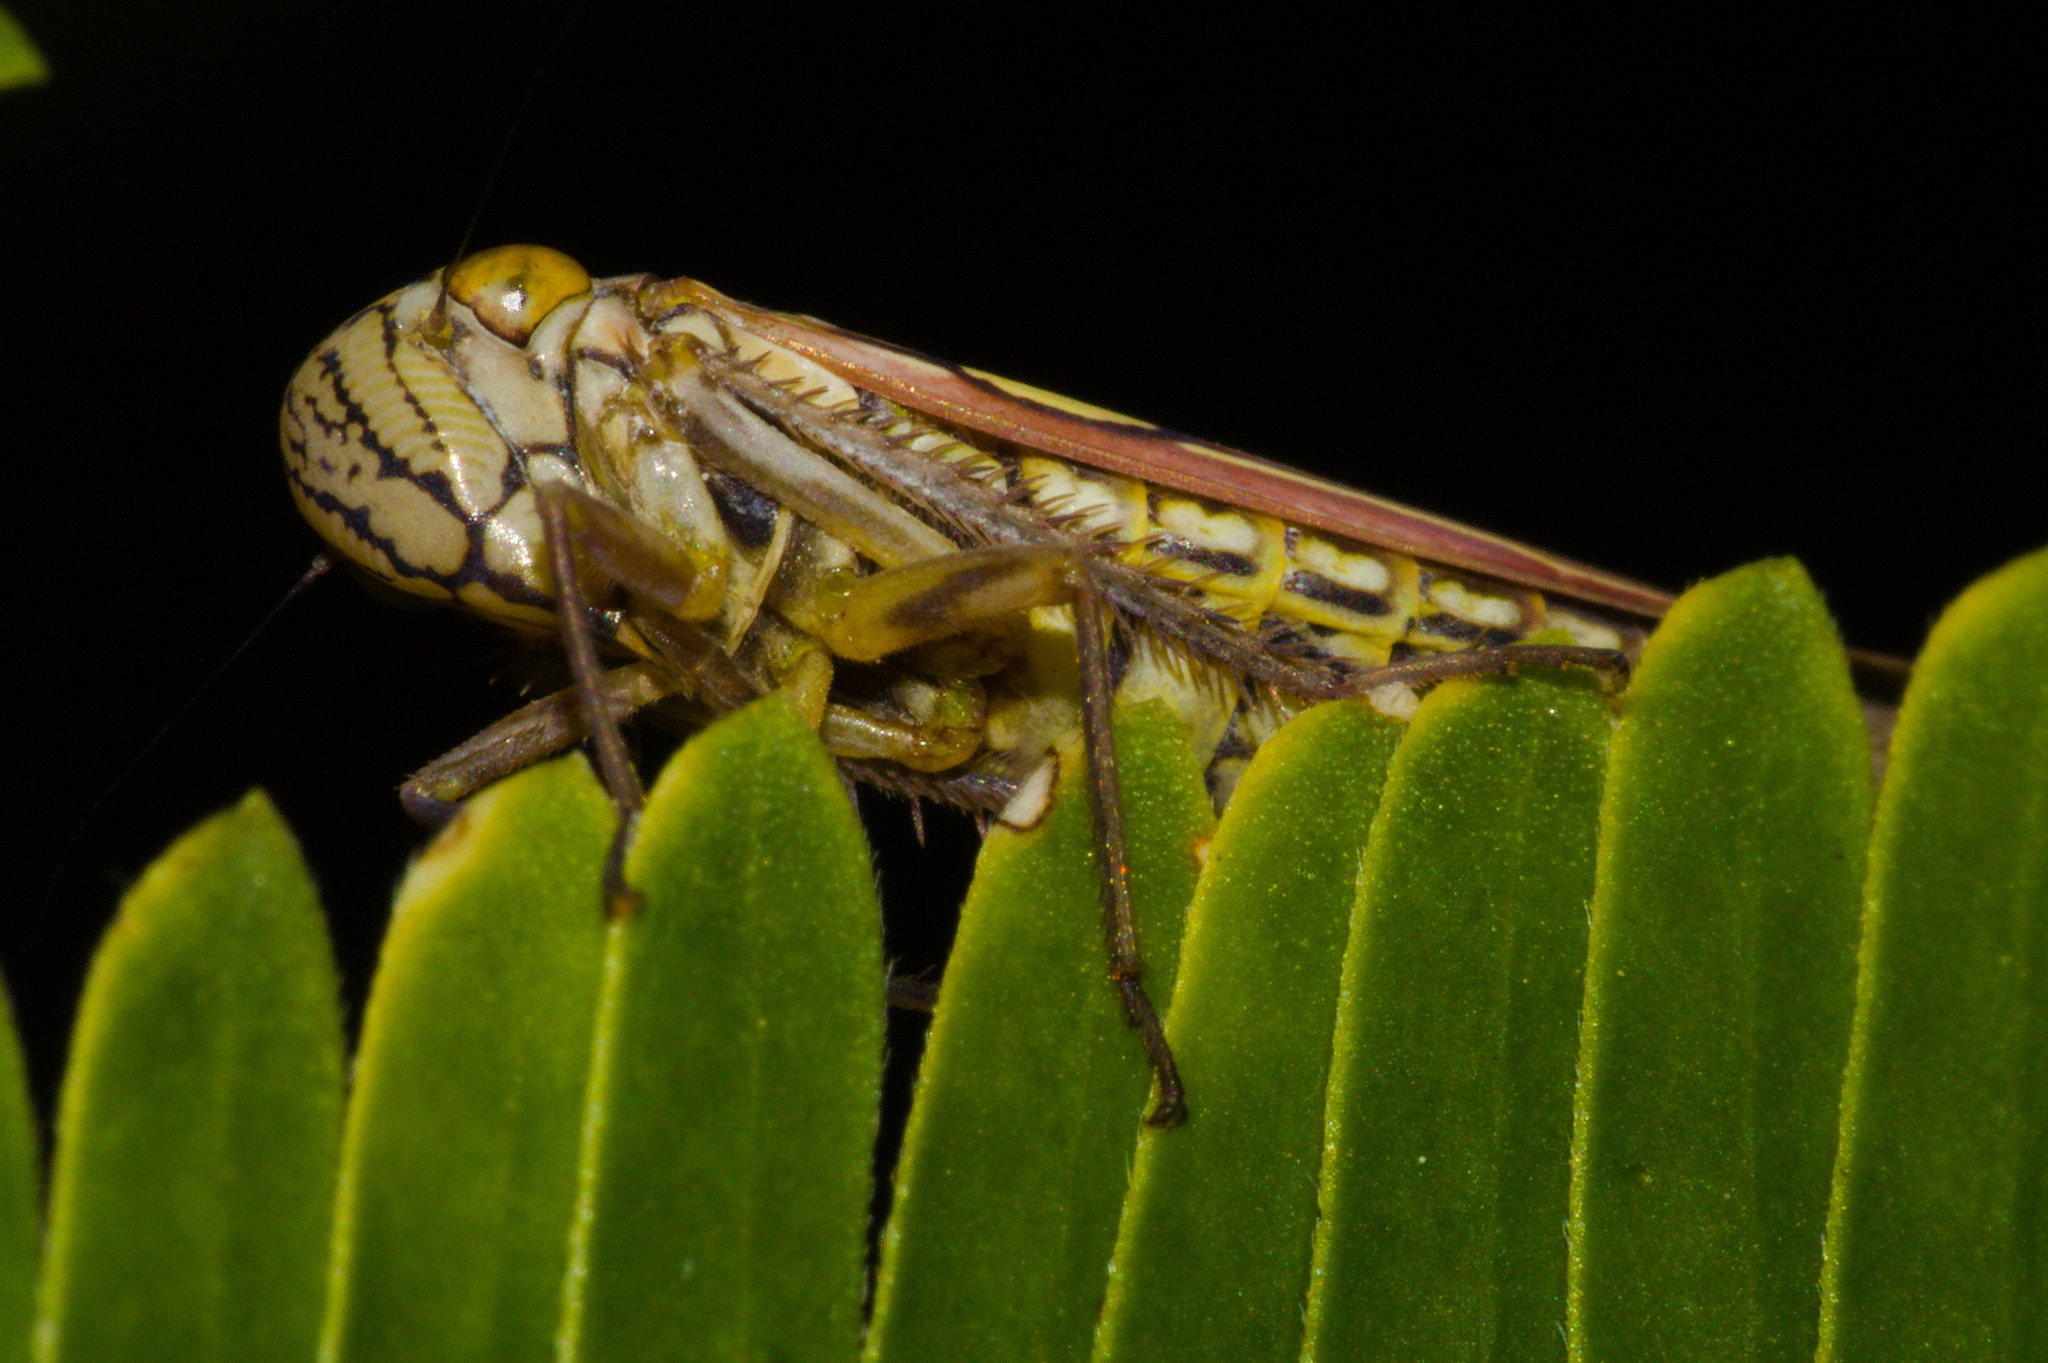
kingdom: Animalia
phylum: Arthropoda
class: Insecta
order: Hemiptera
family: Cicadellidae
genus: Macugonalia
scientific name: Macugonalia geographica
